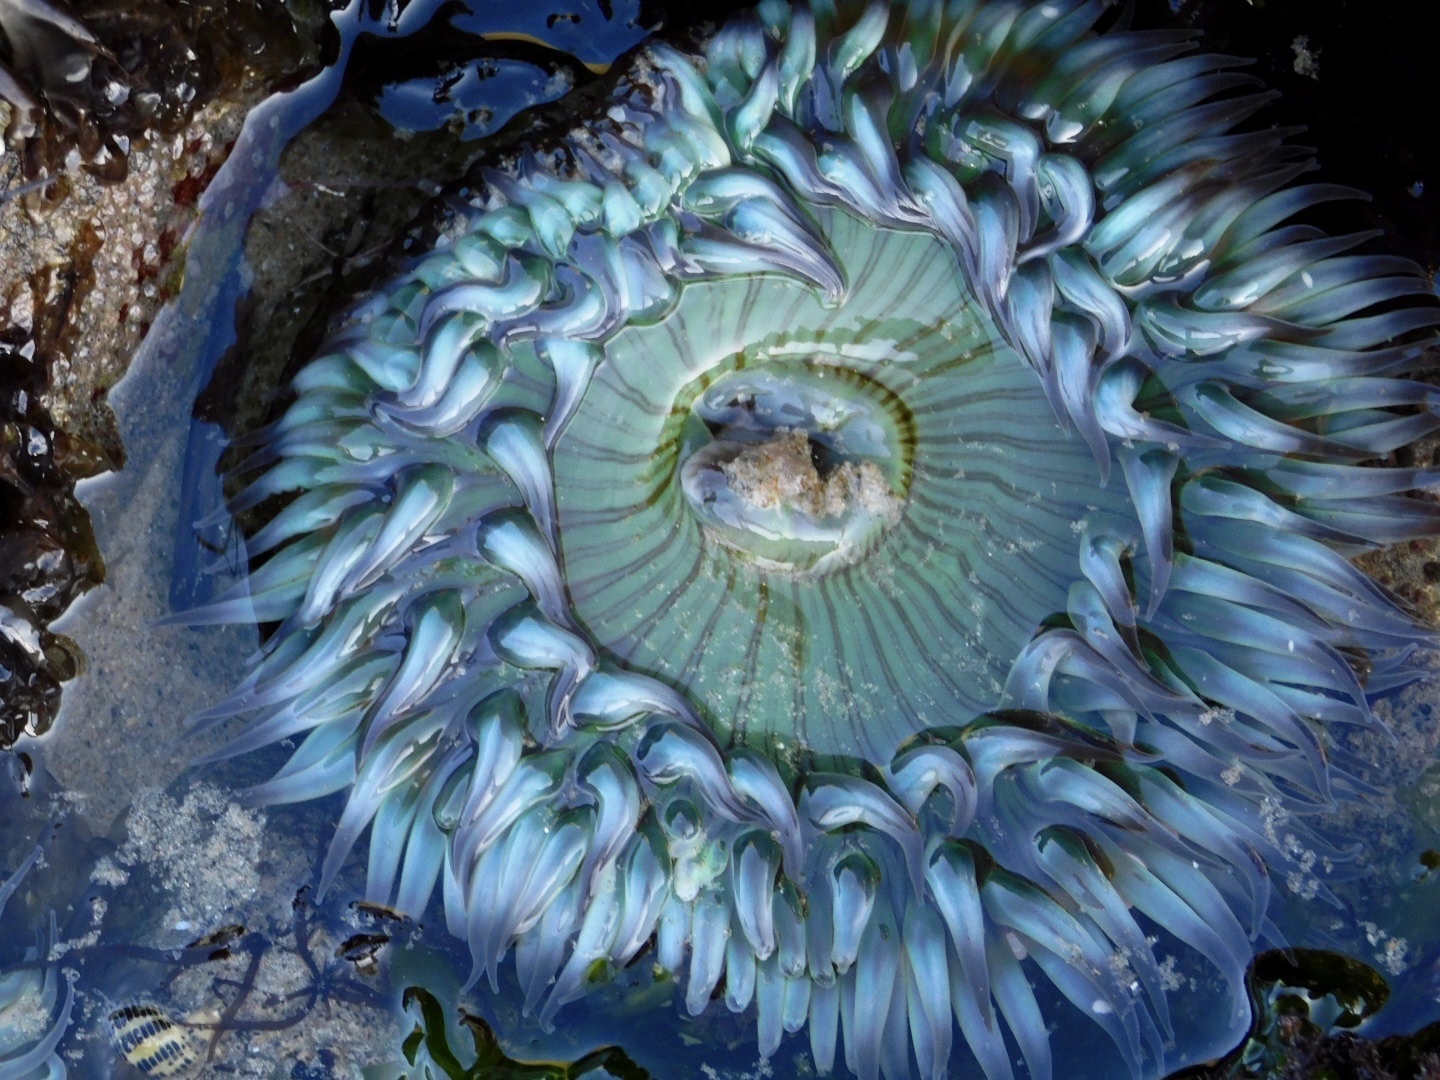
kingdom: Animalia
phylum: Cnidaria
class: Anthozoa
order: Actiniaria
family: Actiniidae
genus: Anthopleura
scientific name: Anthopleura sola
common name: Sun anemone
